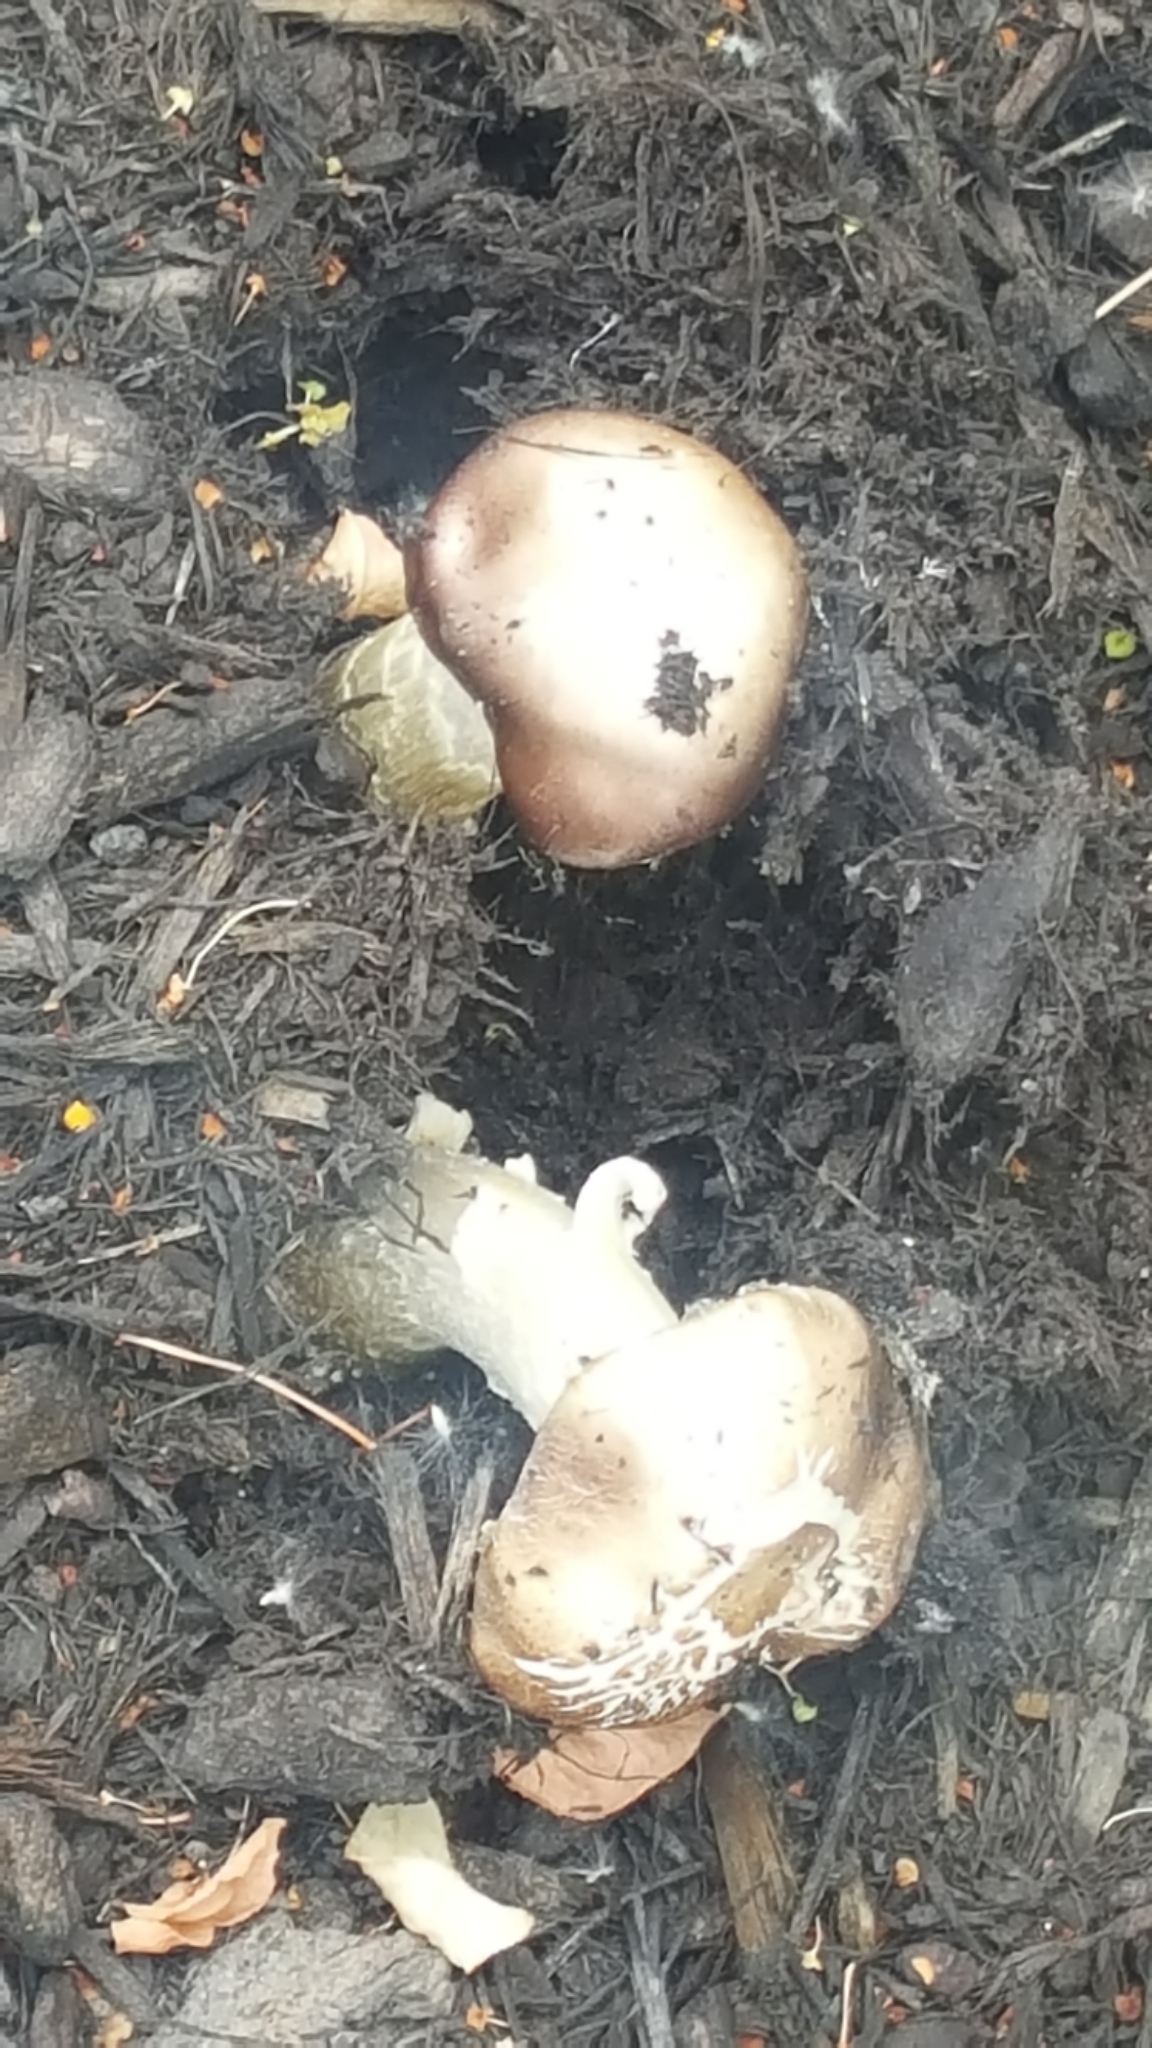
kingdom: Fungi
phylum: Basidiomycota
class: Agaricomycetes
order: Agaricales
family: Strophariaceae
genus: Stropharia
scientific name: Stropharia rugosoannulata
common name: Wine roundhead
